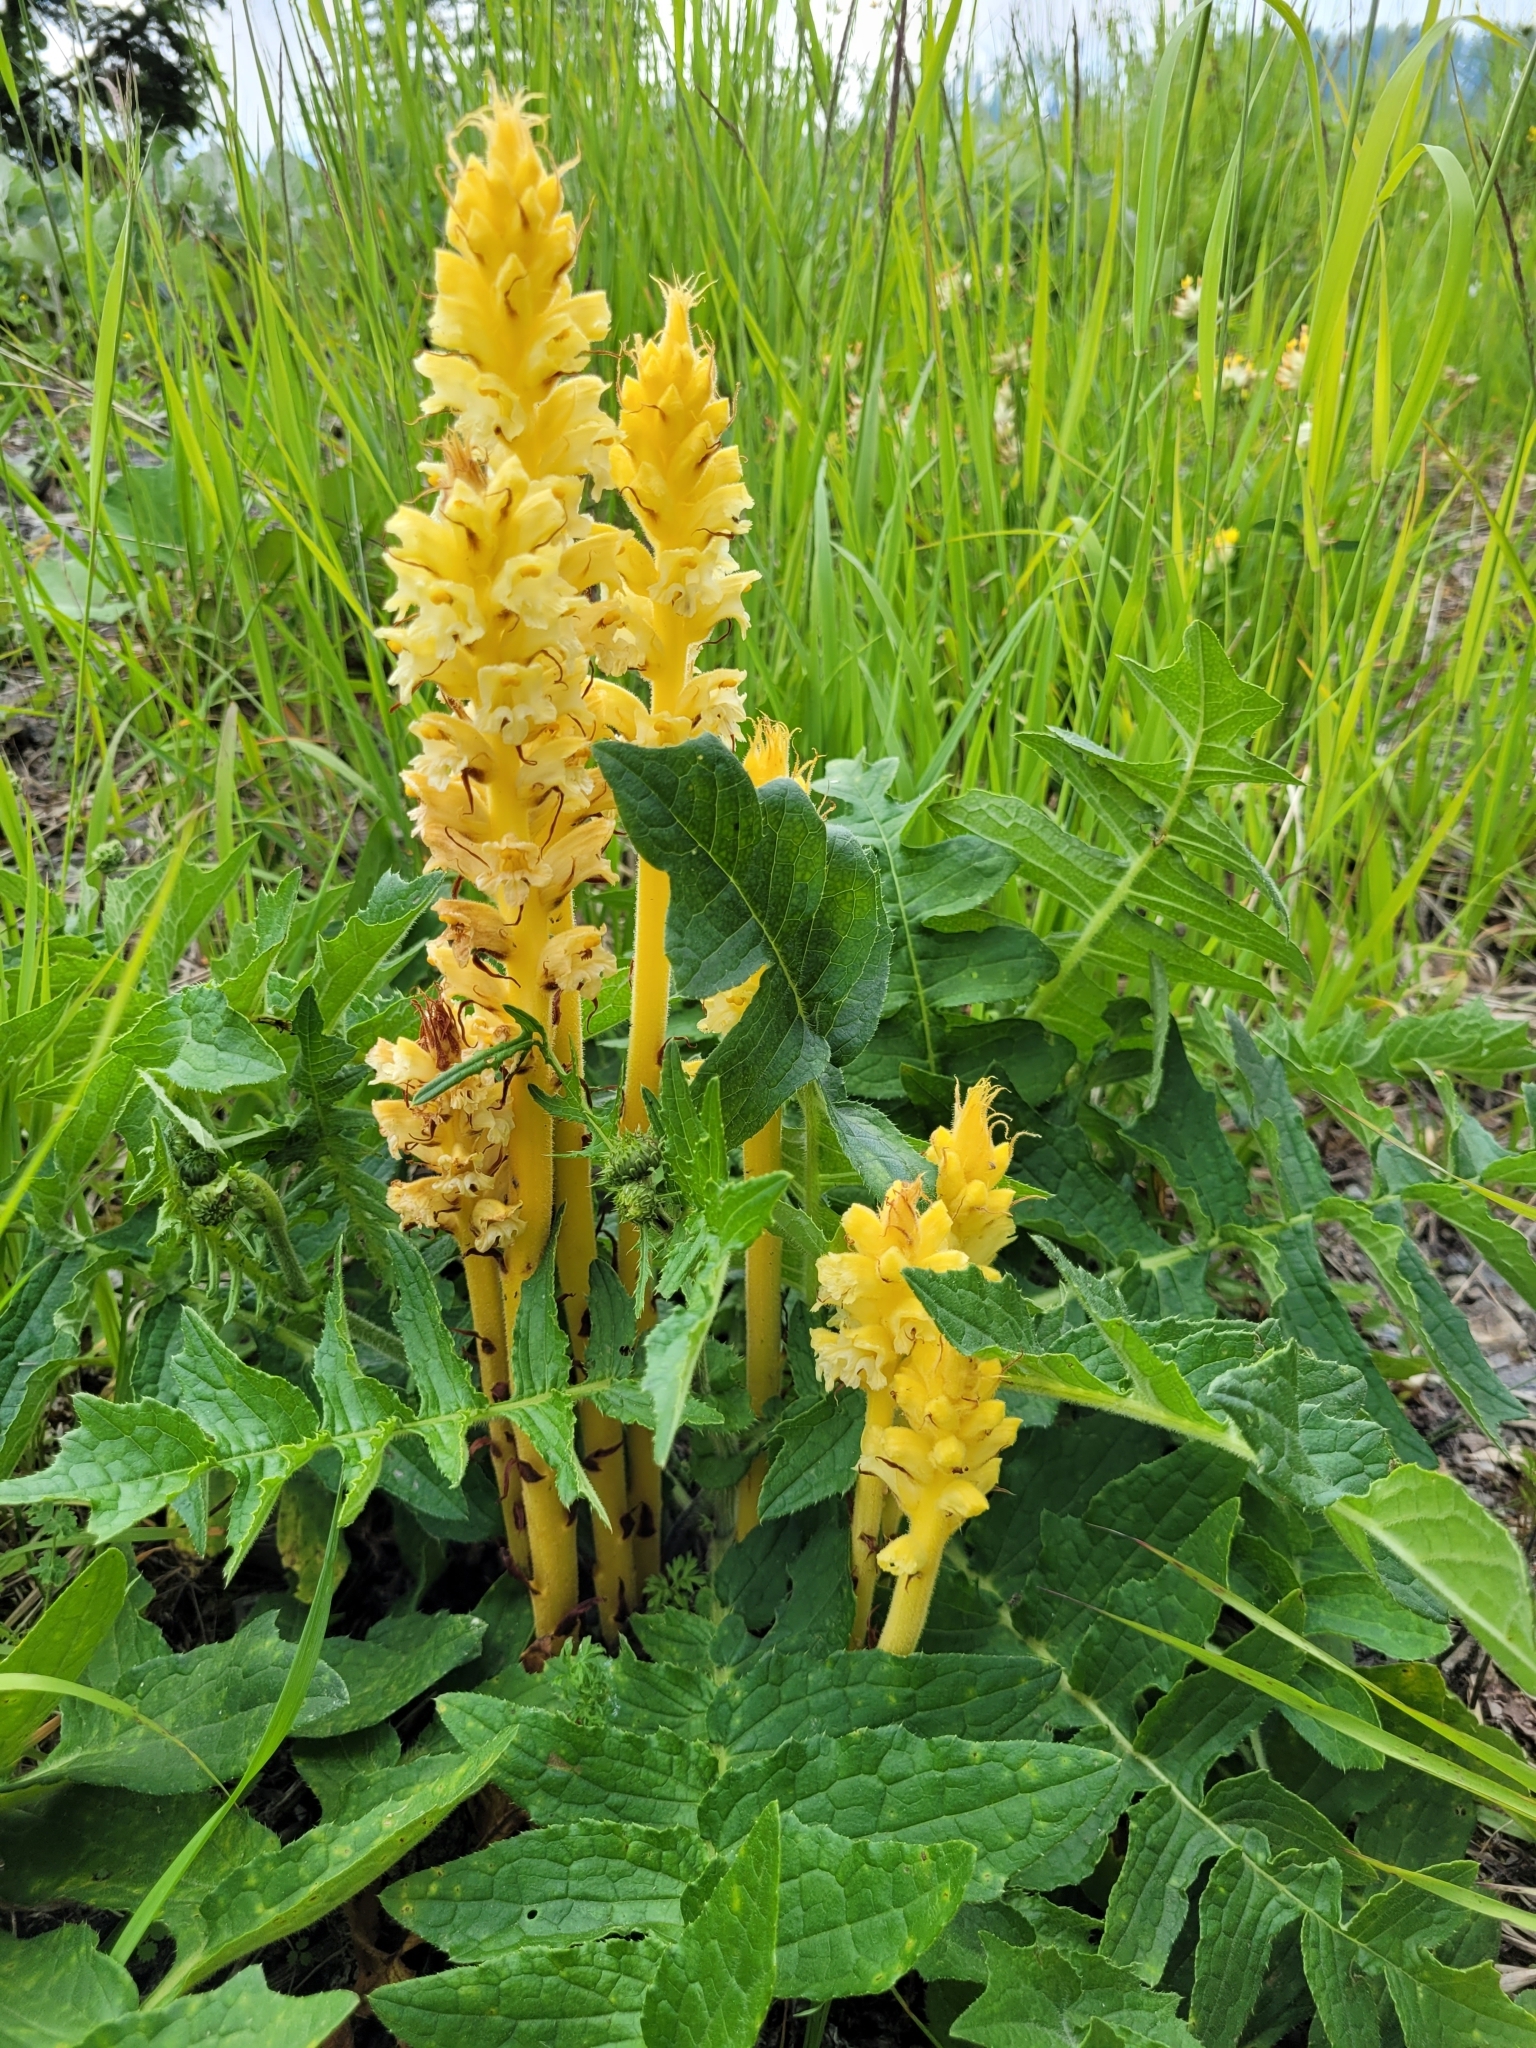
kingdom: Plantae
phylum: Tracheophyta
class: Magnoliopsida
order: Lamiales
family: Orobanchaceae
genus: Orobanche
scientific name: Orobanche flava
